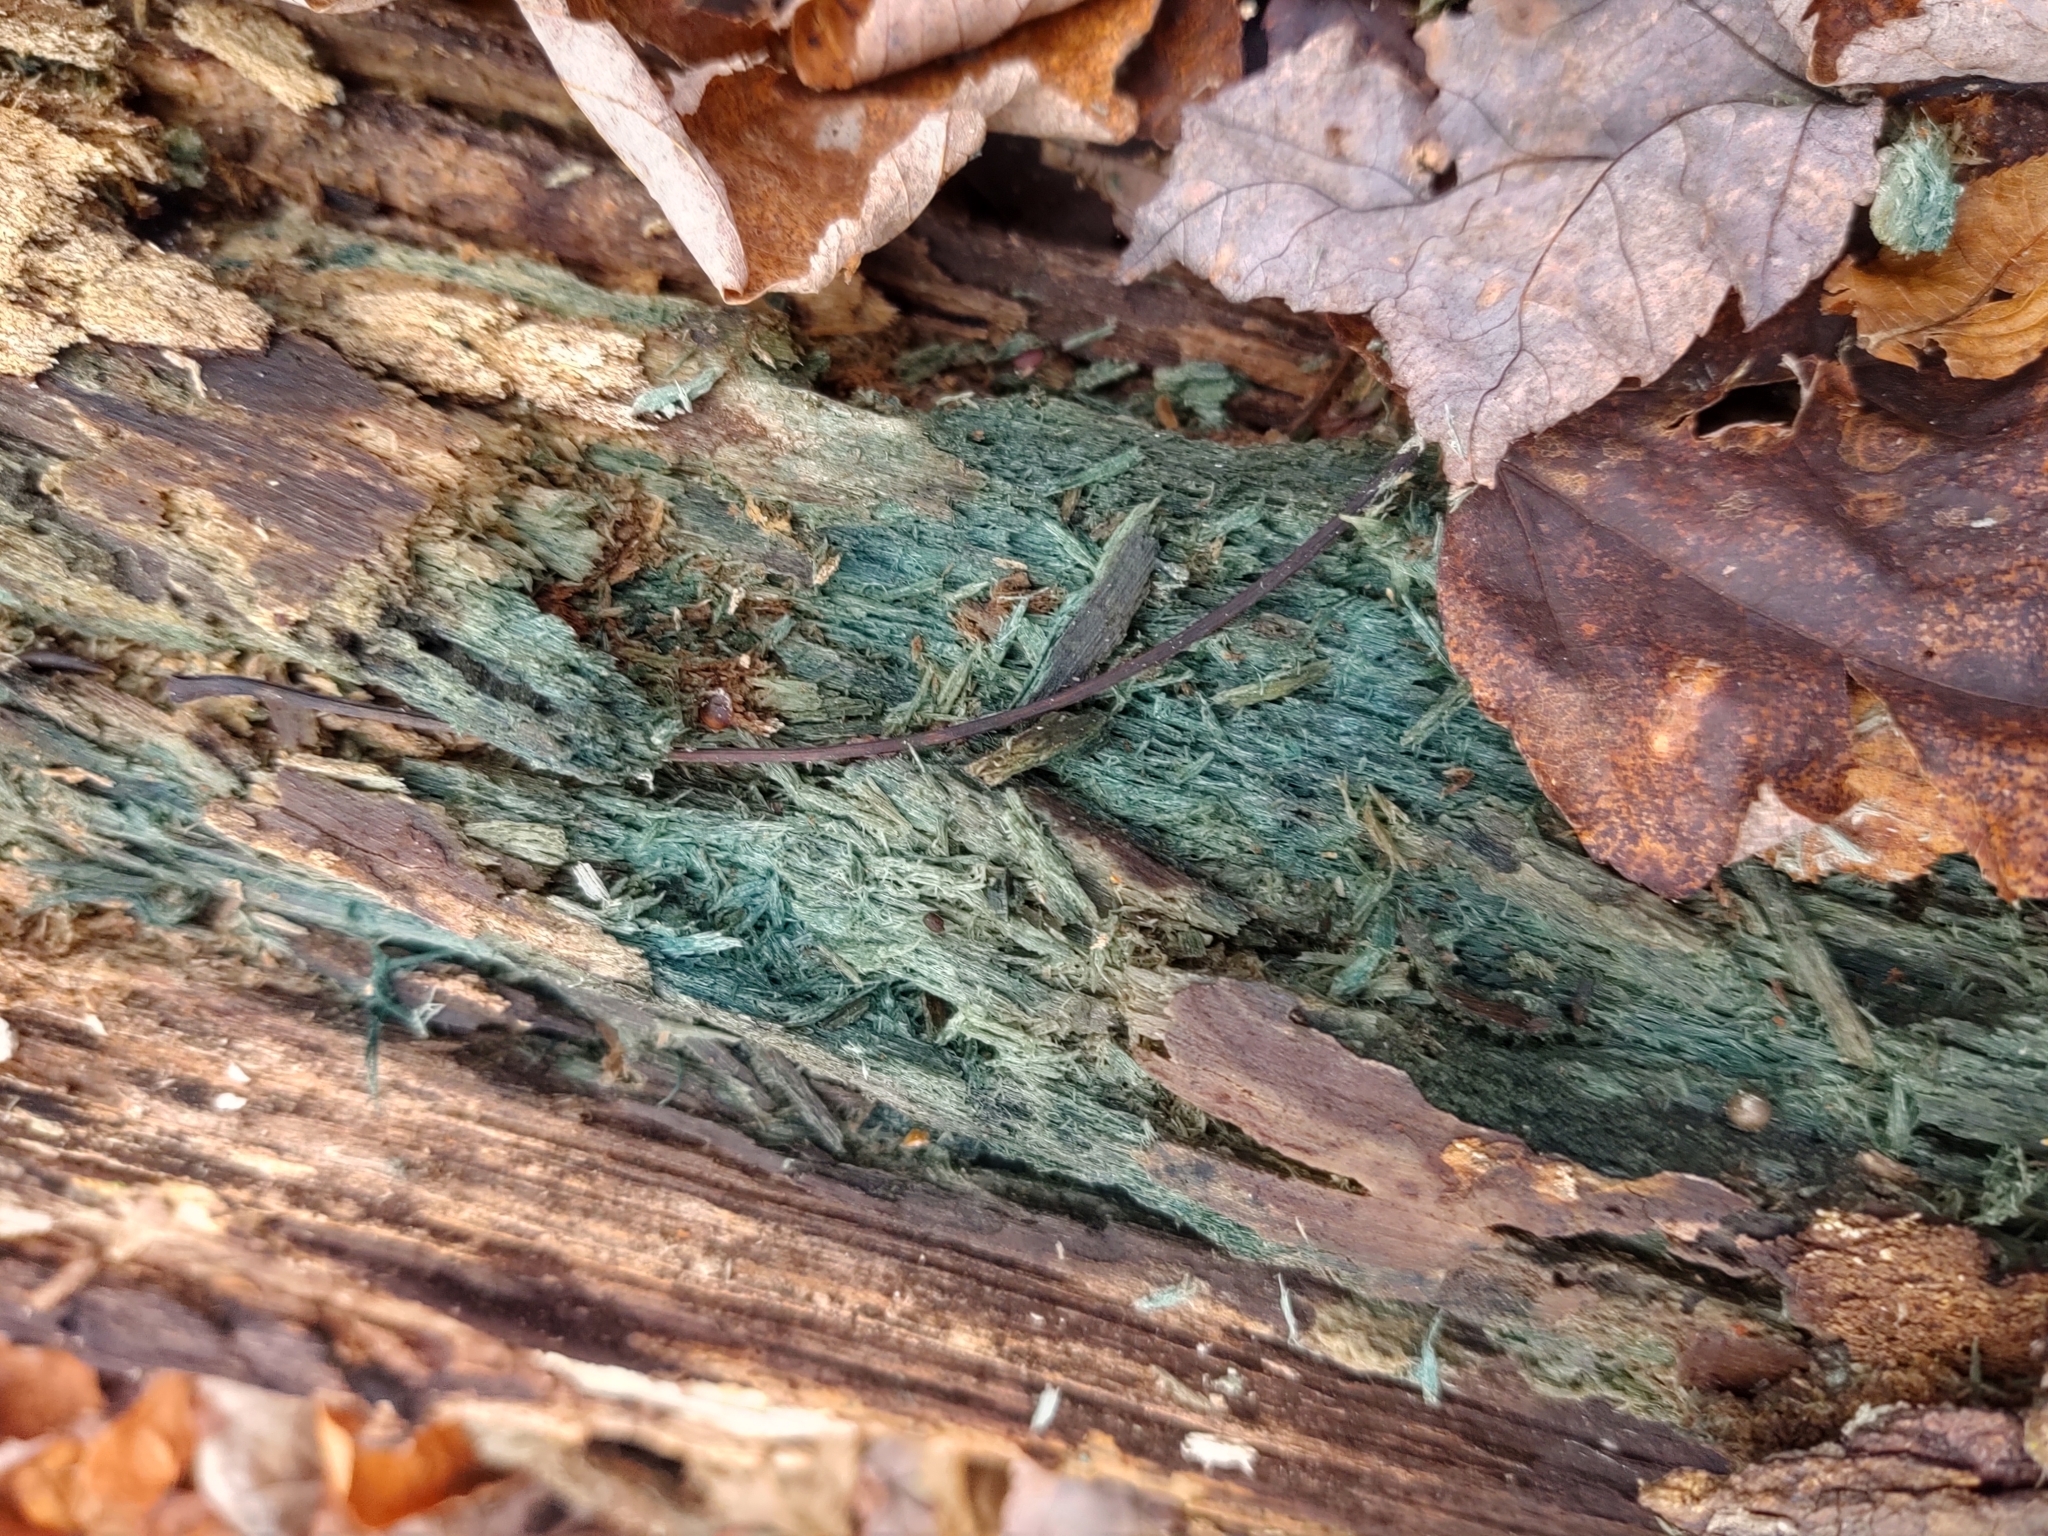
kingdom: Fungi
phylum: Ascomycota
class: Leotiomycetes
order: Helotiales
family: Chlorociboriaceae
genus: Chlorociboria
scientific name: Chlorociboria
